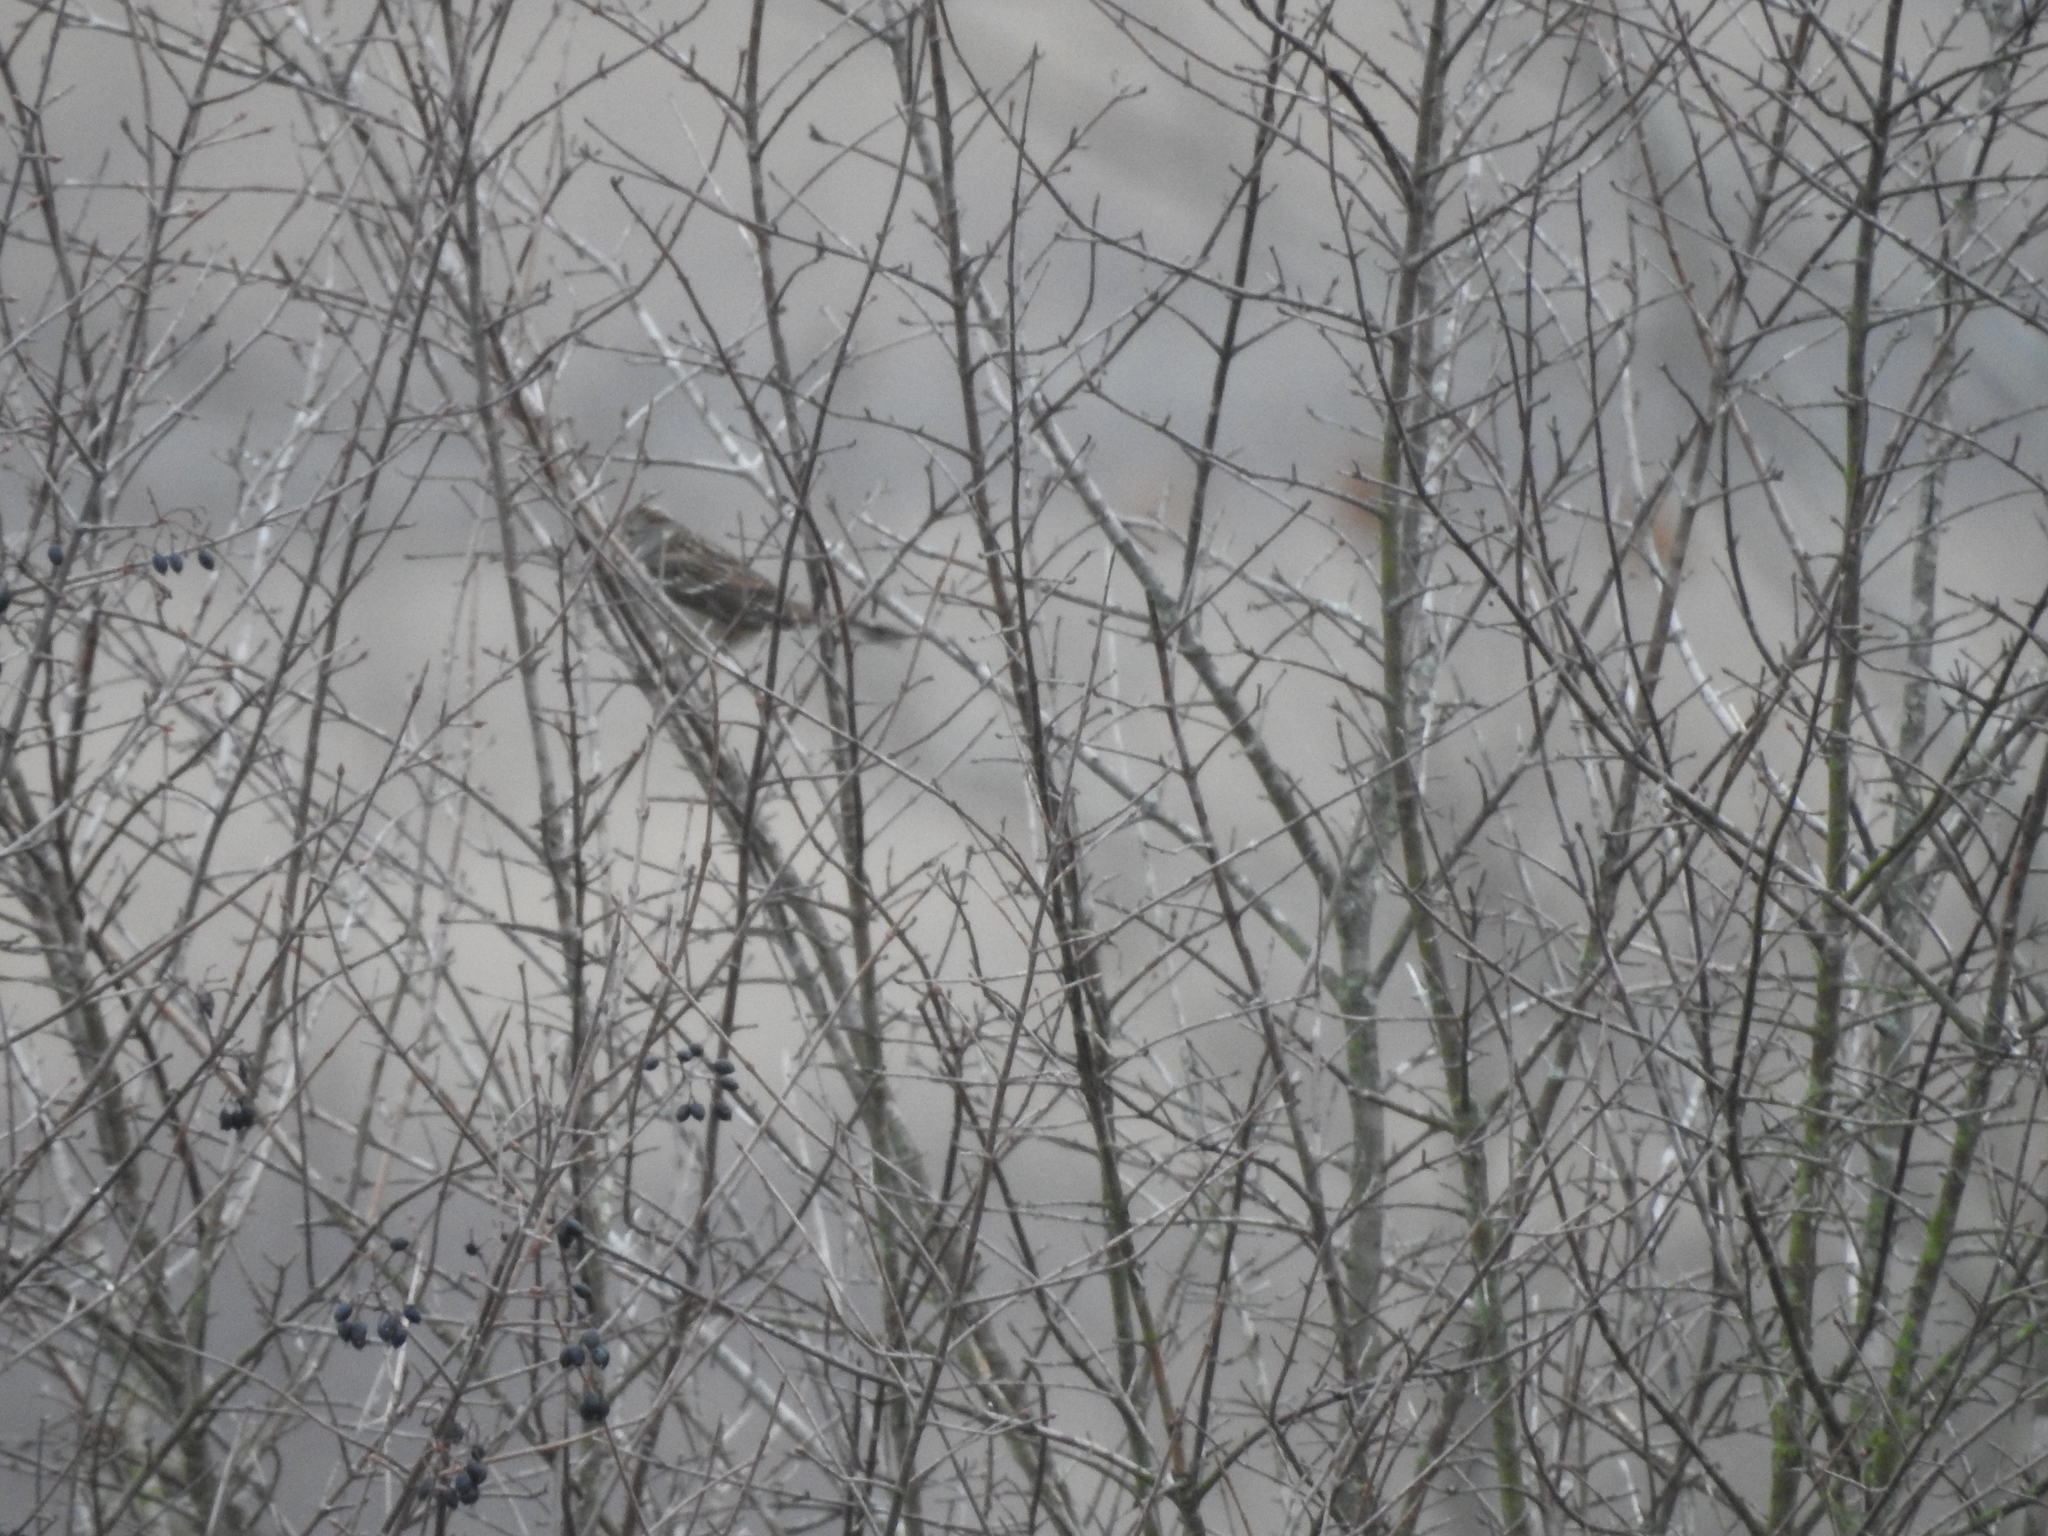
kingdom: Animalia
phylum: Chordata
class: Aves
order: Passeriformes
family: Passerellidae
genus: Melospiza
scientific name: Melospiza melodia
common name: Song sparrow
